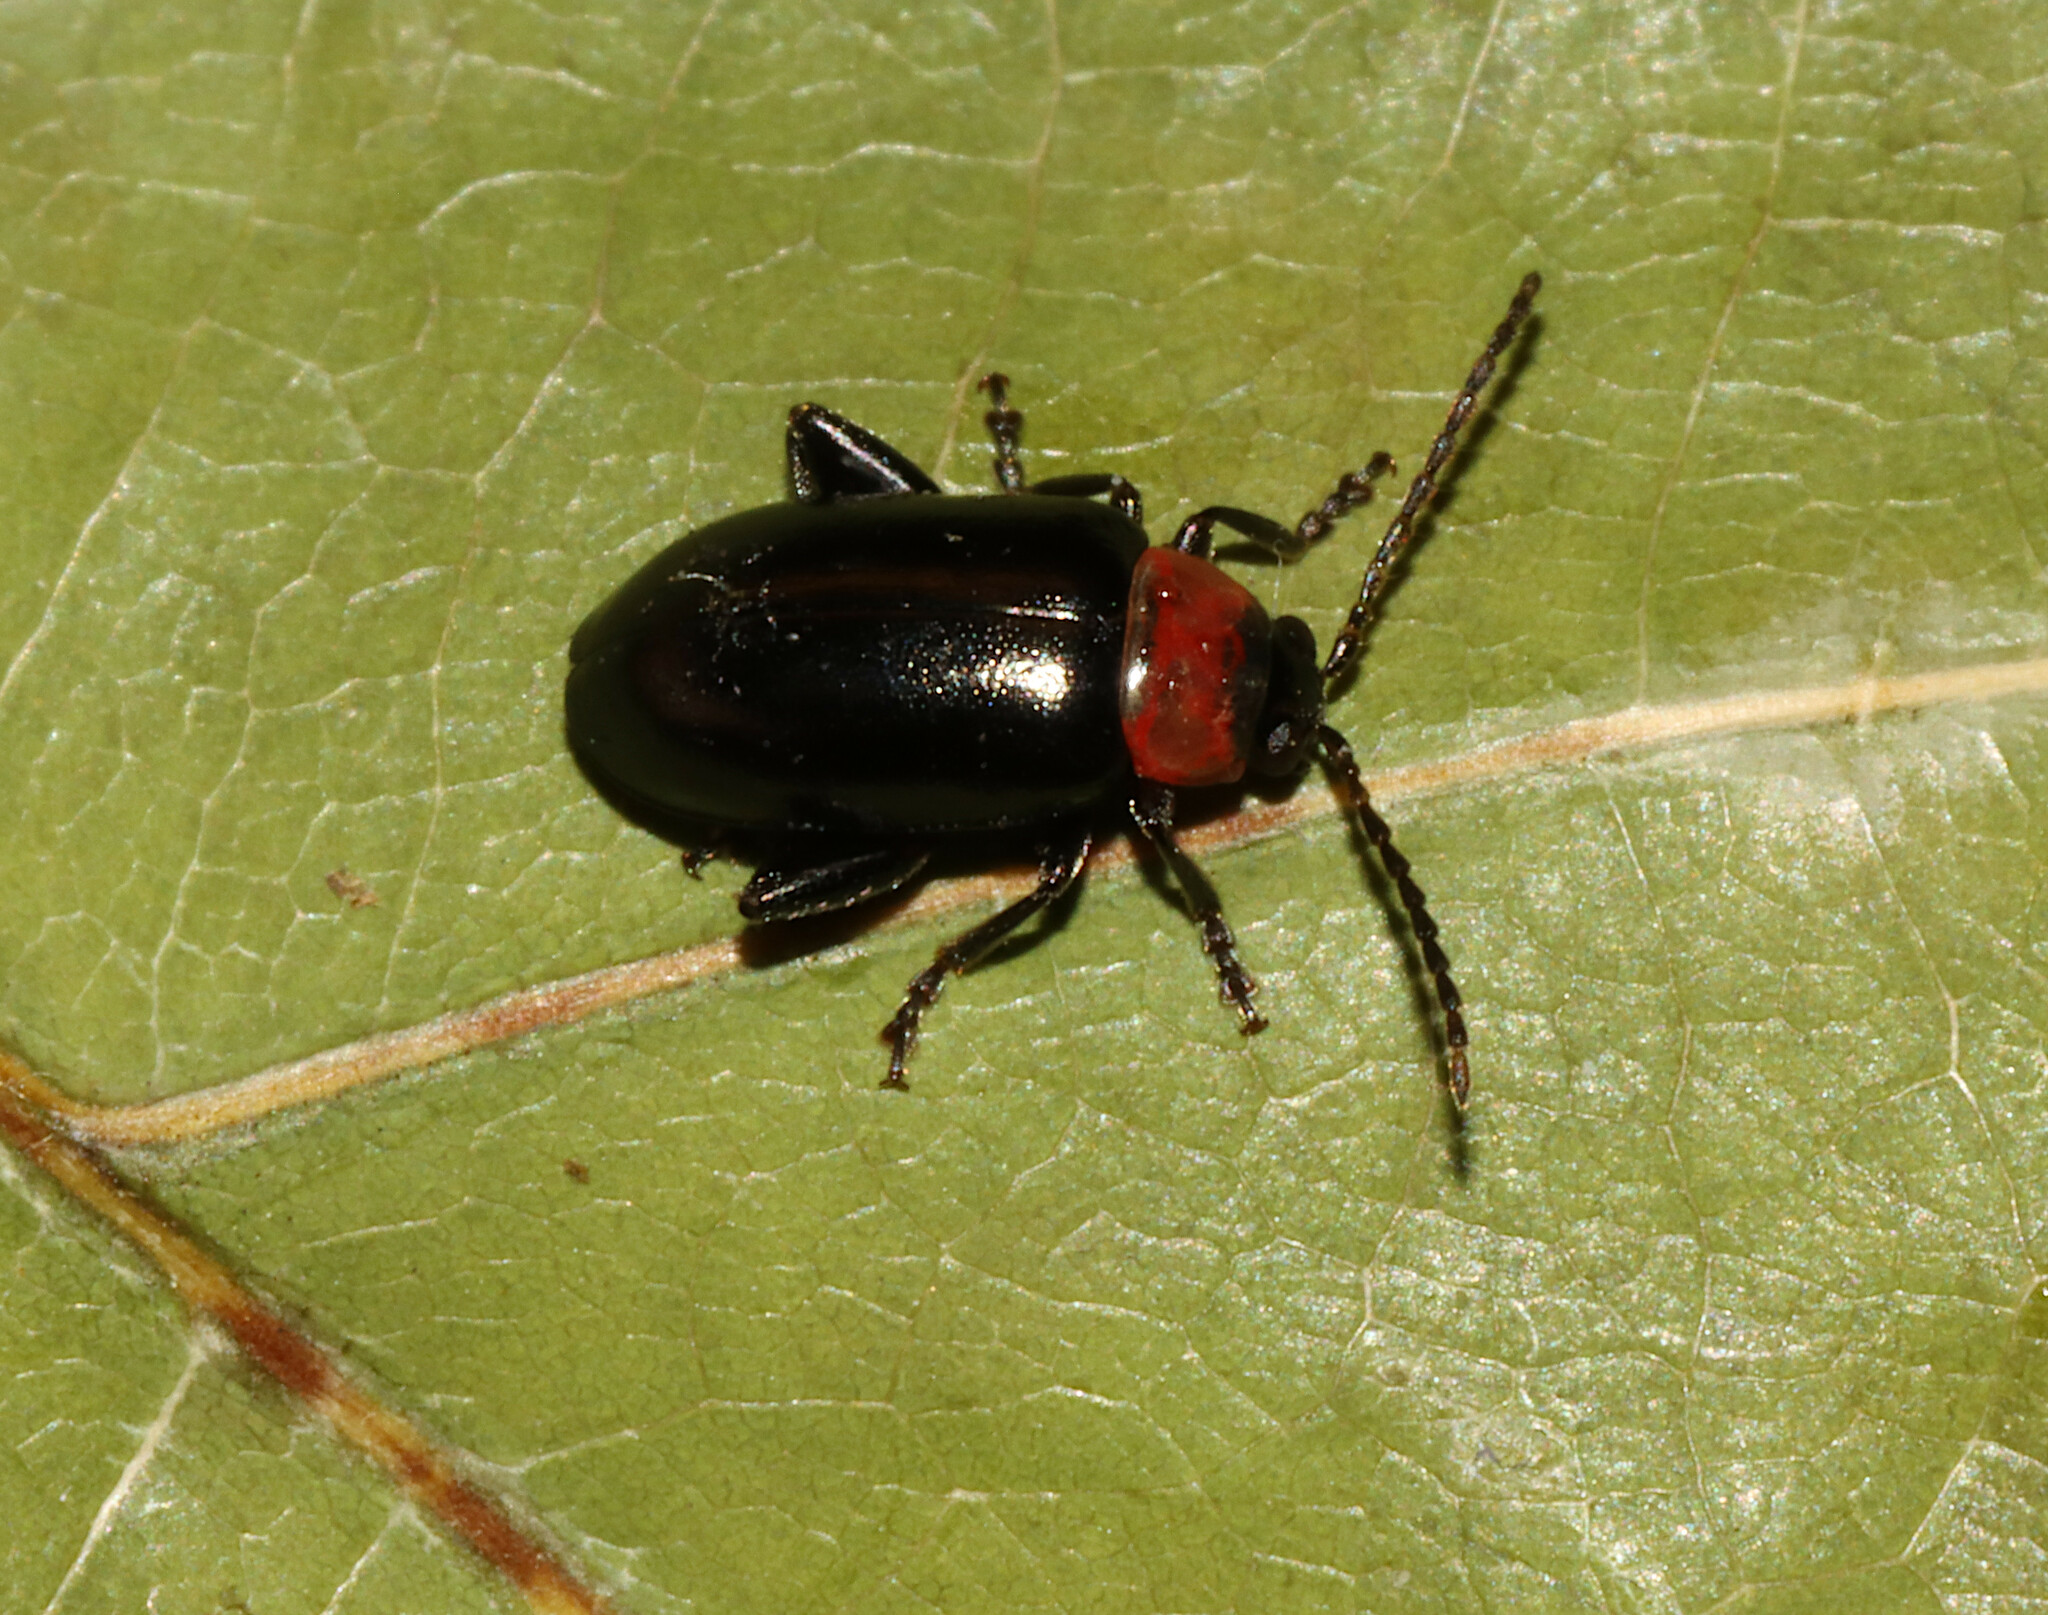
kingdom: Animalia
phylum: Arthropoda
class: Insecta
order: Coleoptera
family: Chrysomelidae
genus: Disonycha
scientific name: Disonycha xanthomelas
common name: Spinach flea beetle
